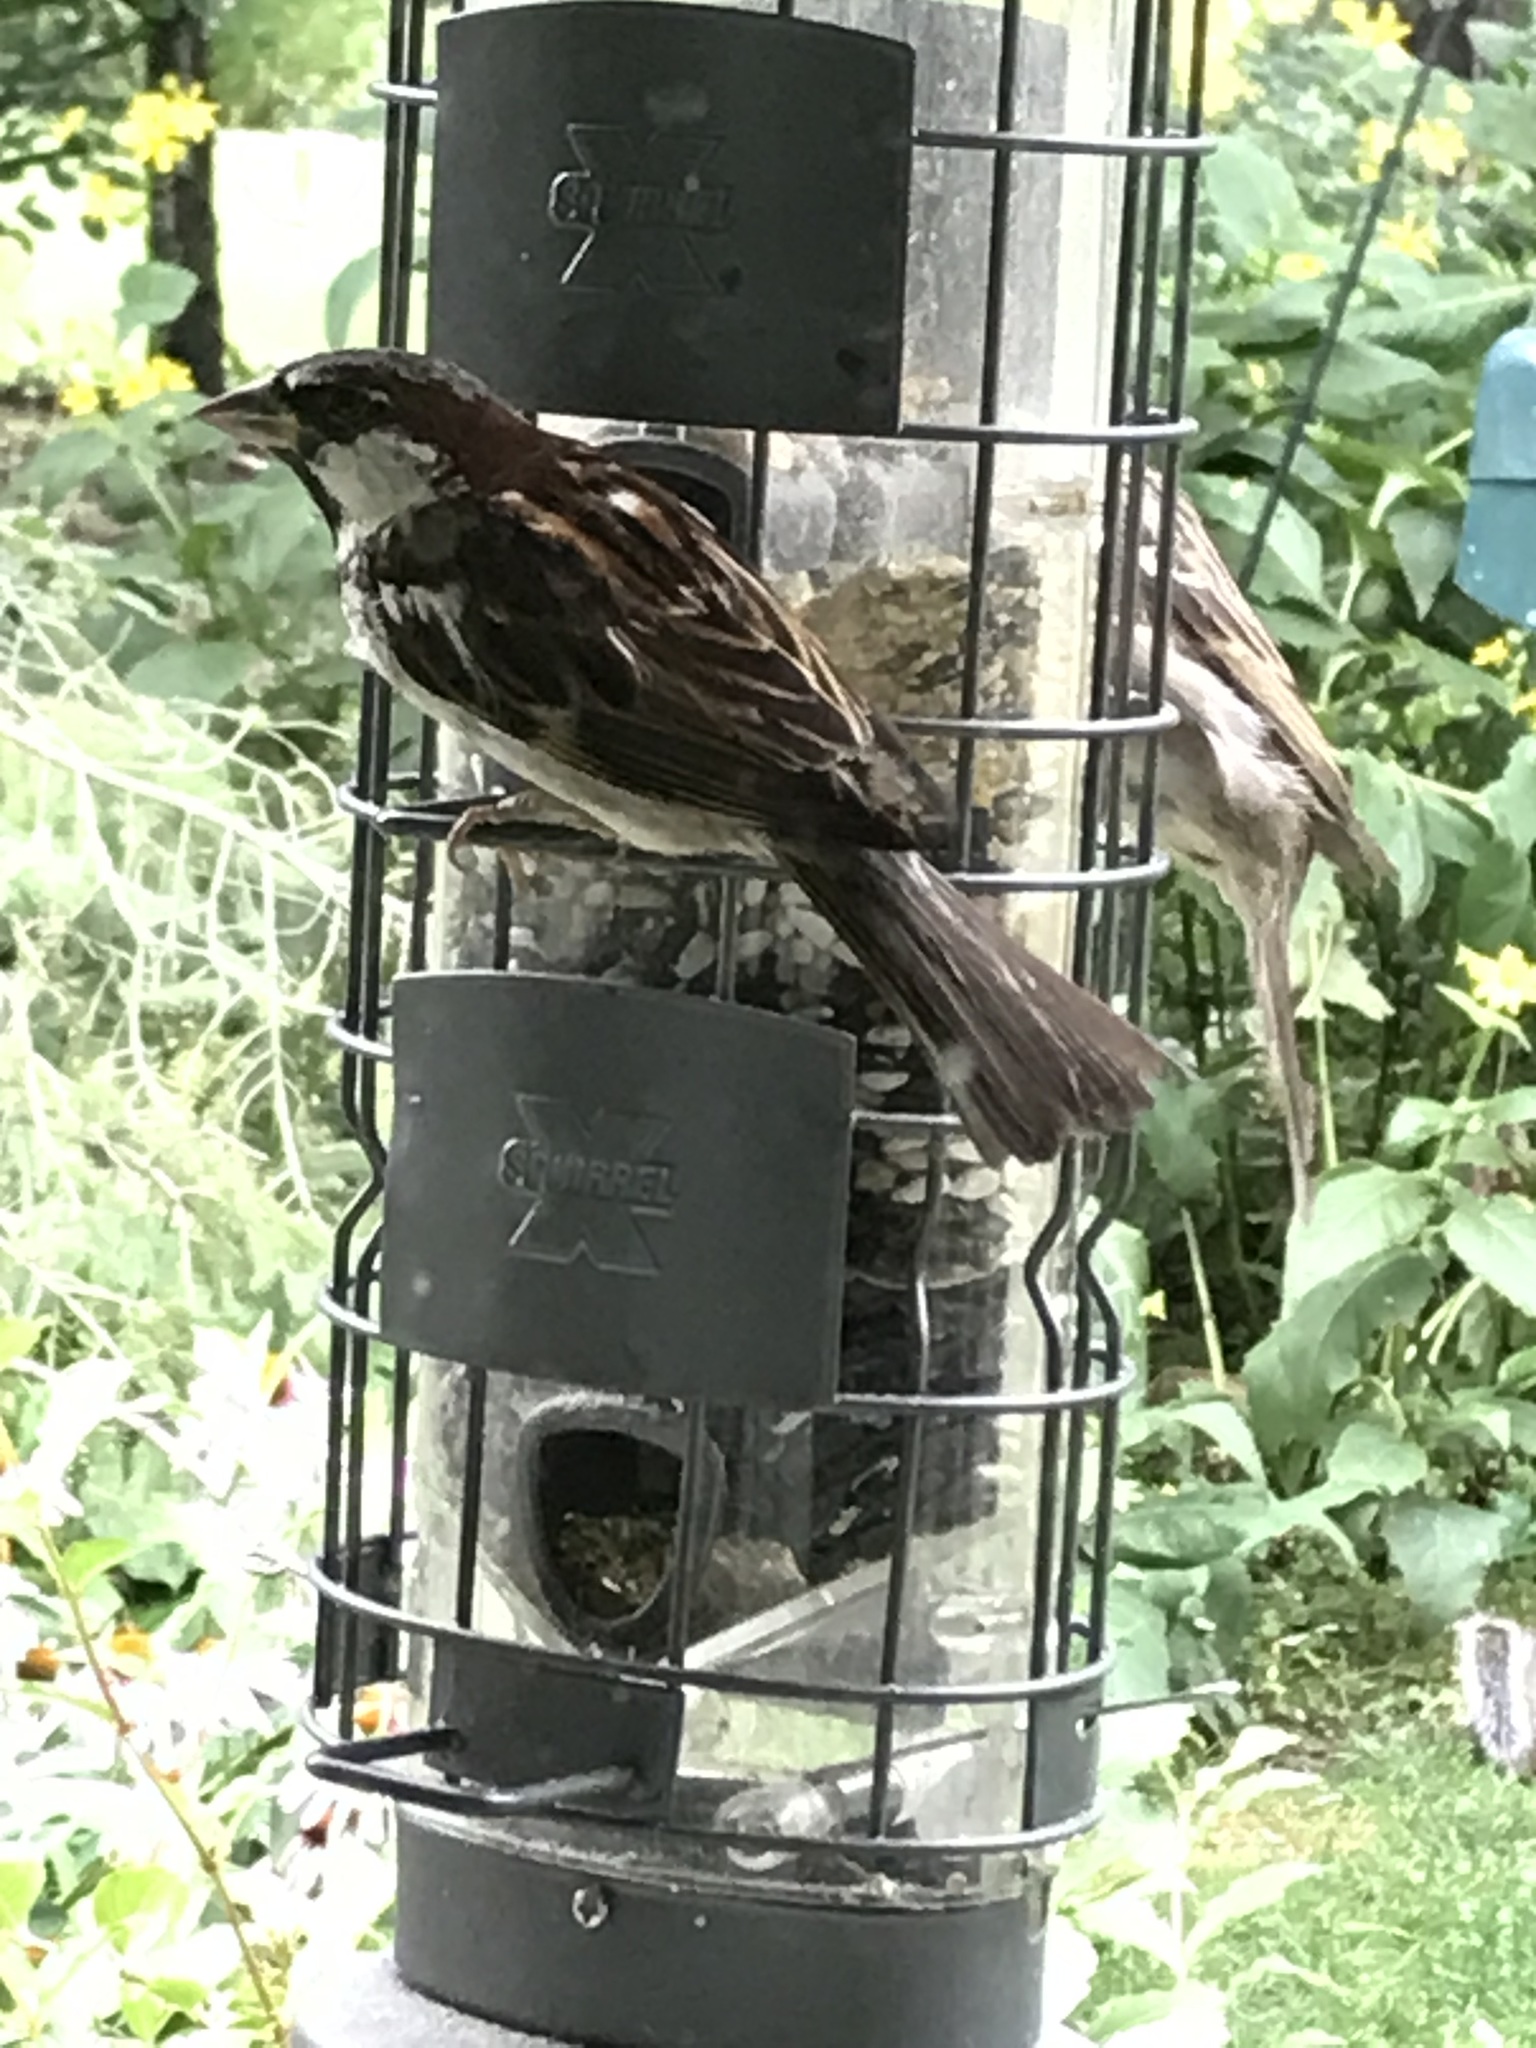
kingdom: Animalia
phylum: Chordata
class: Aves
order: Passeriformes
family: Passeridae
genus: Passer
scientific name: Passer domesticus
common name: House sparrow
